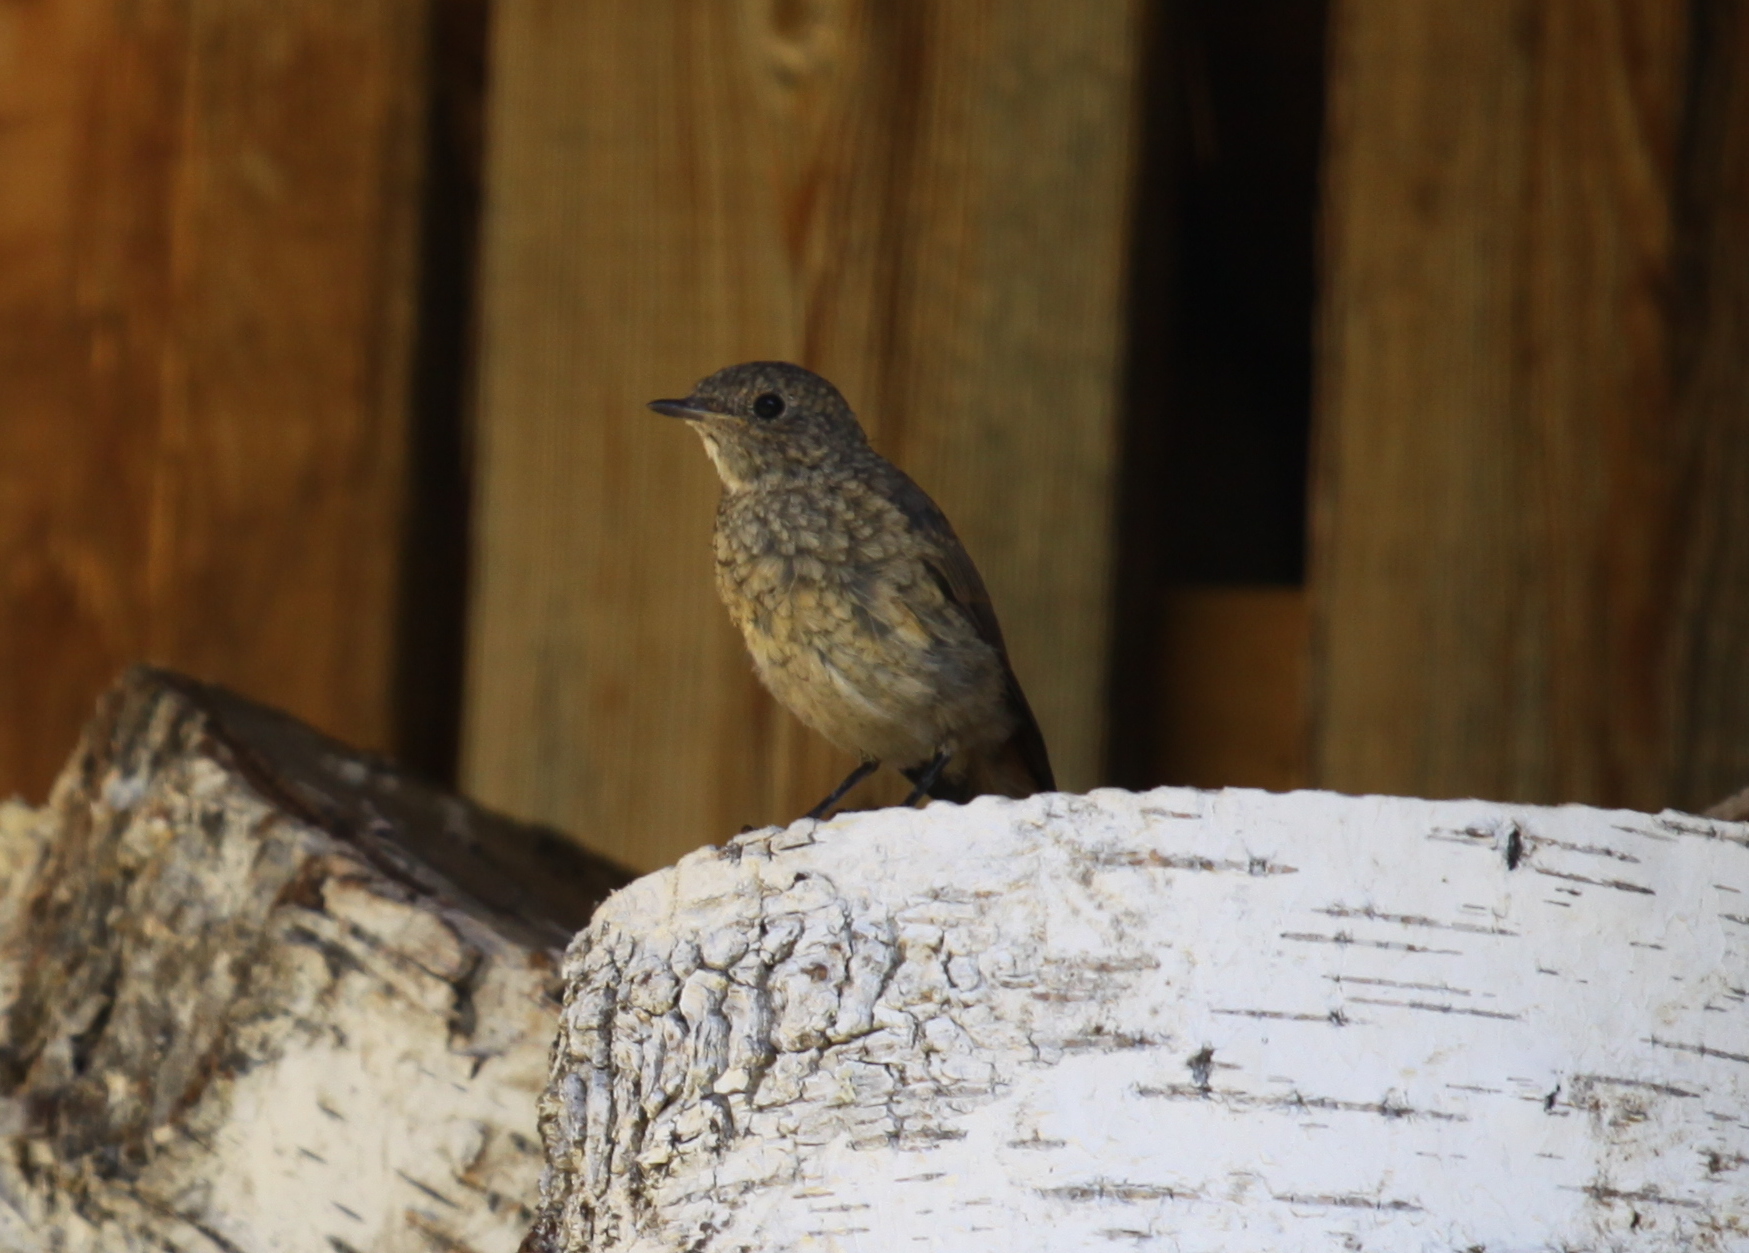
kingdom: Animalia
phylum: Chordata
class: Aves
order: Passeriformes
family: Muscicapidae
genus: Phoenicurus
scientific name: Phoenicurus phoenicurus
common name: Common redstart
